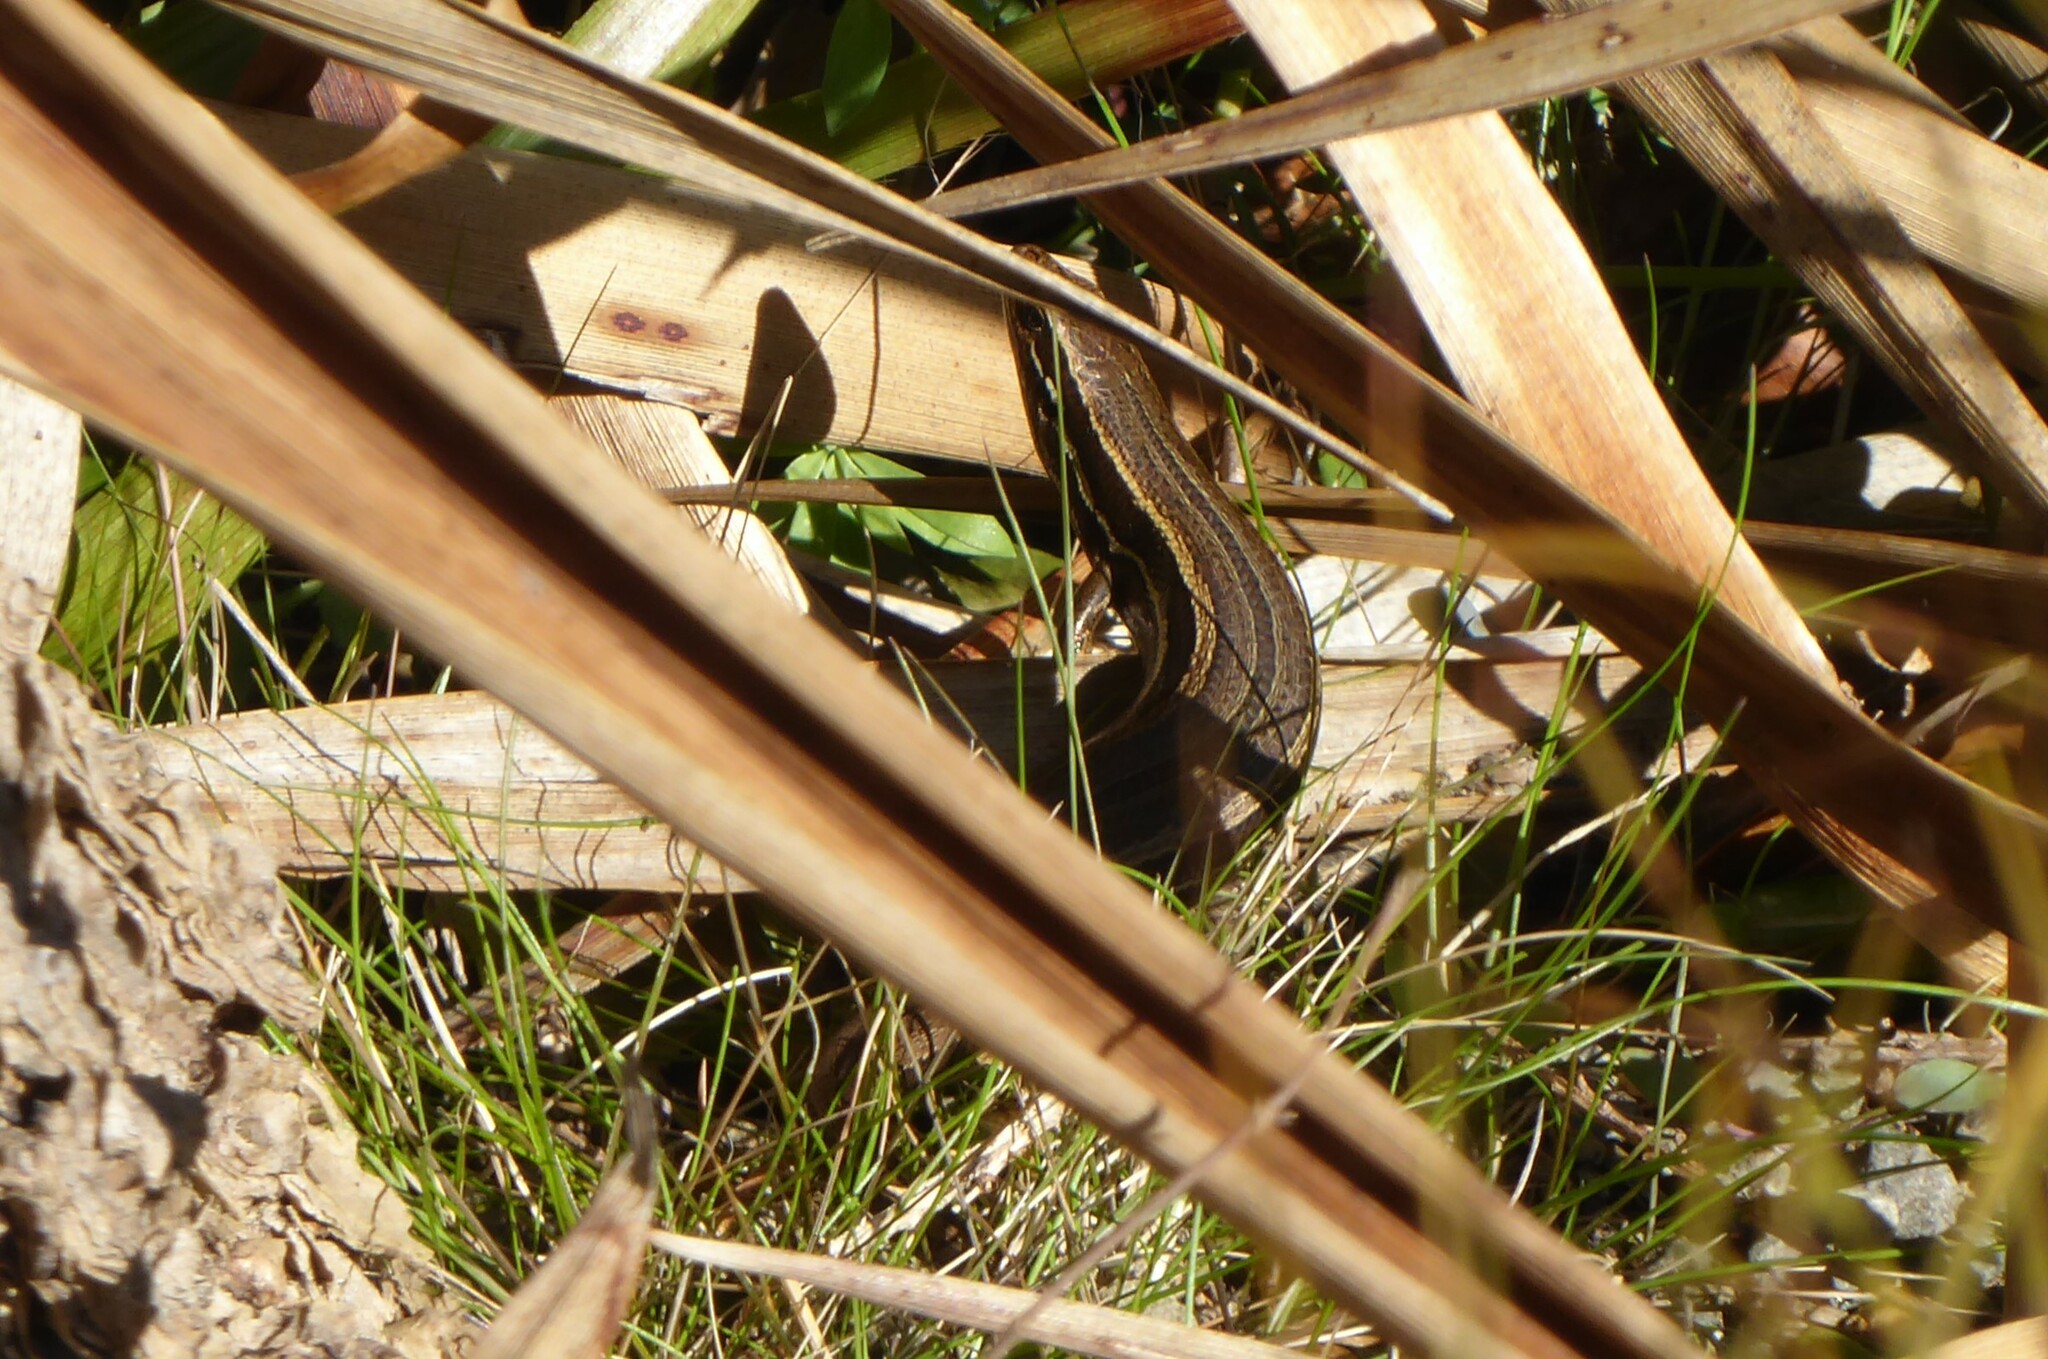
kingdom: Animalia
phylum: Chordata
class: Squamata
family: Scincidae
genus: Oligosoma
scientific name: Oligosoma polychroma
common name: Common new zealand skink
